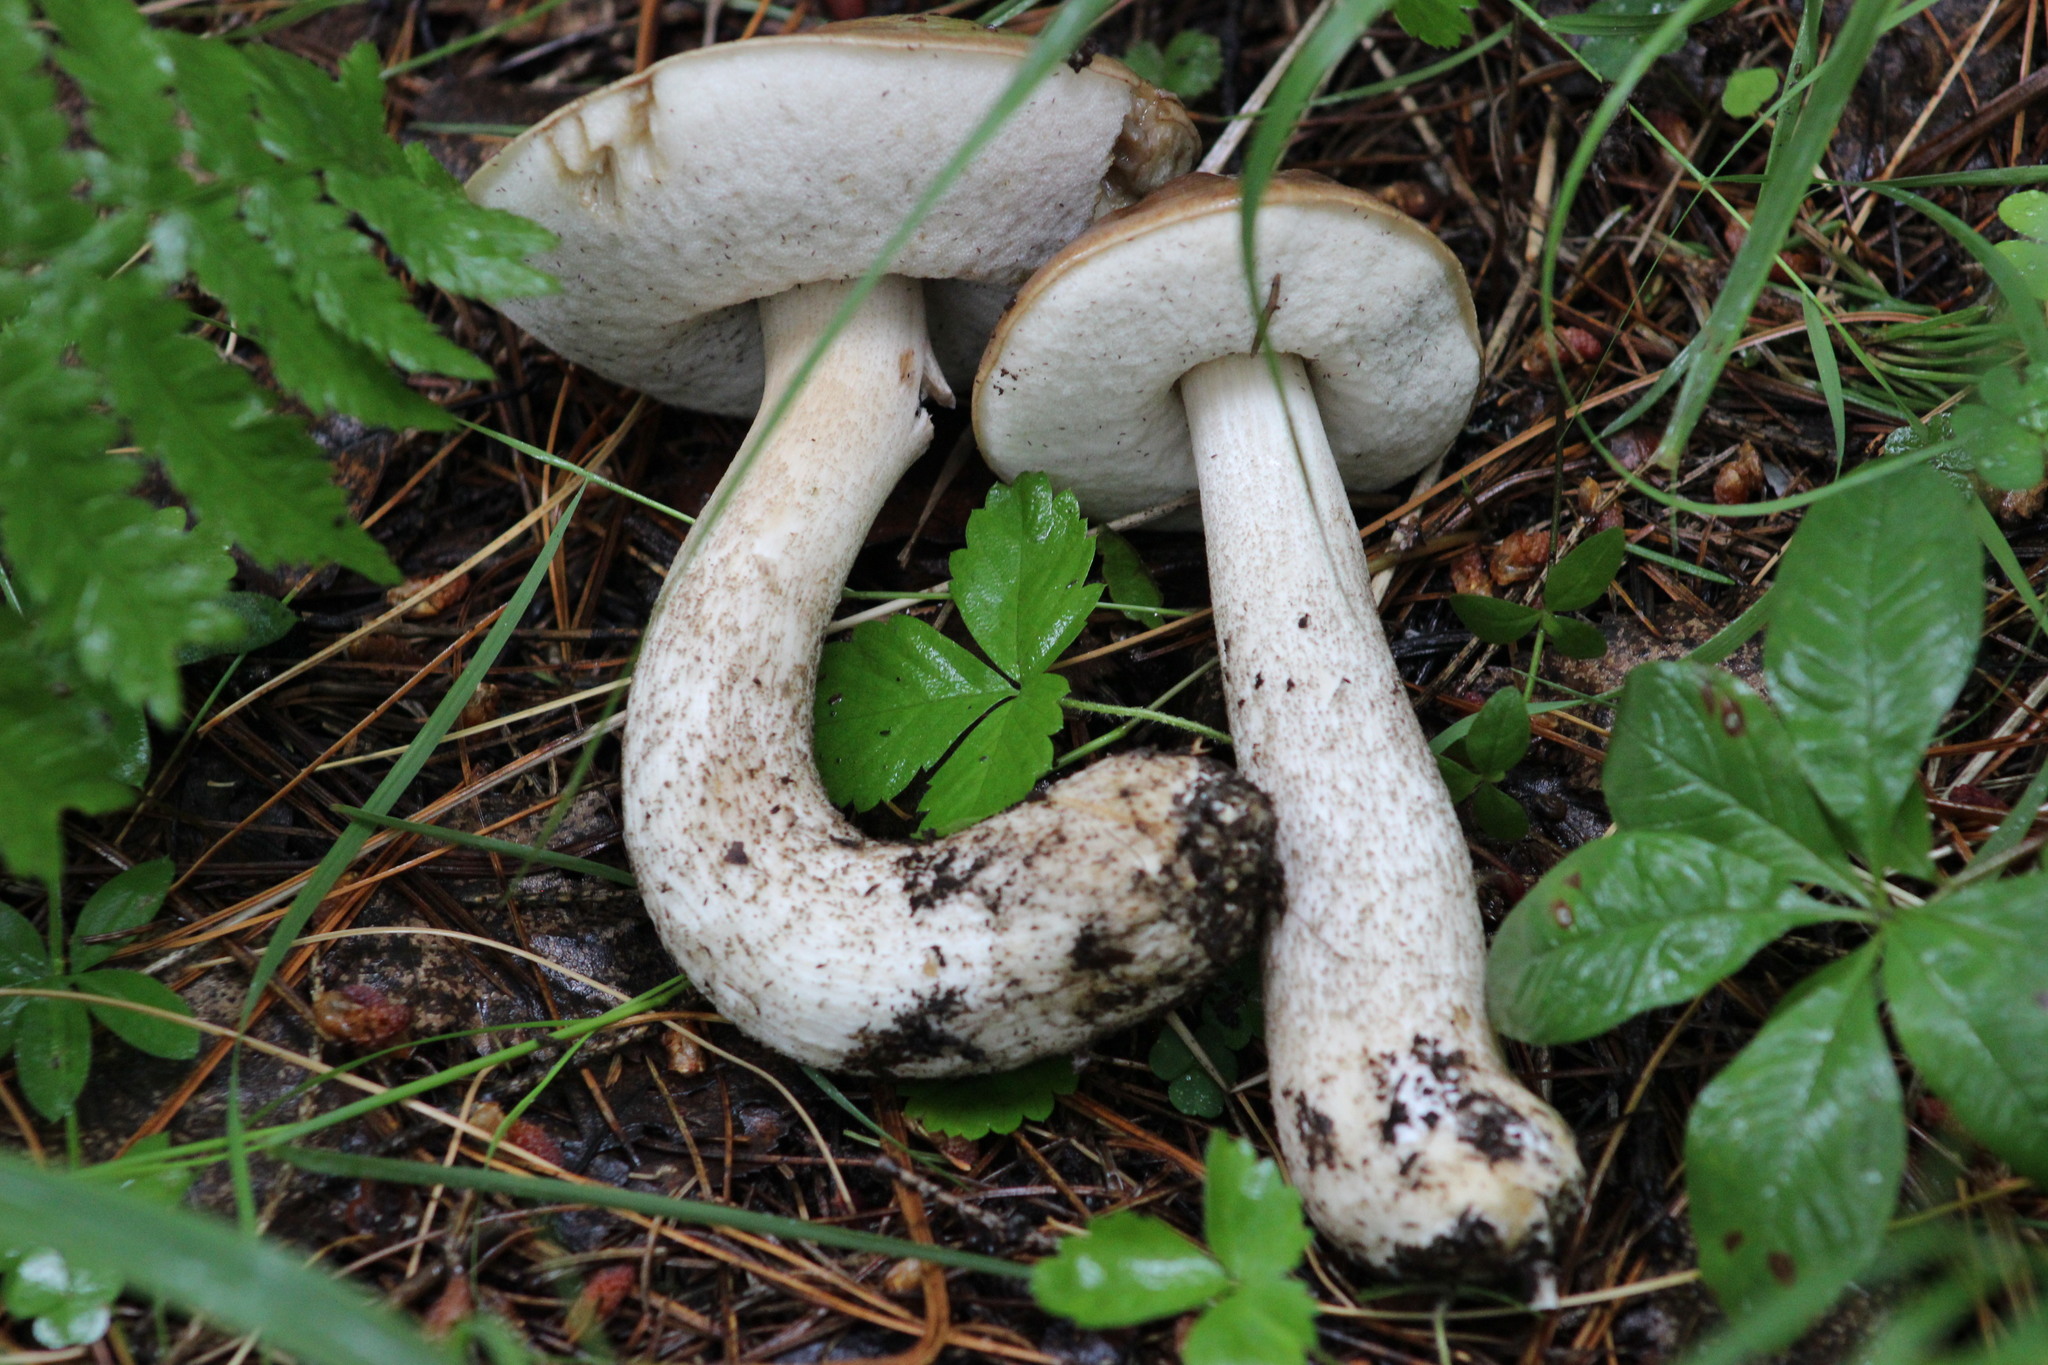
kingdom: Fungi
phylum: Basidiomycota
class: Agaricomycetes
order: Boletales
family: Boletaceae
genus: Leccinum
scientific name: Leccinum scabrum
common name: Blushing bolete
